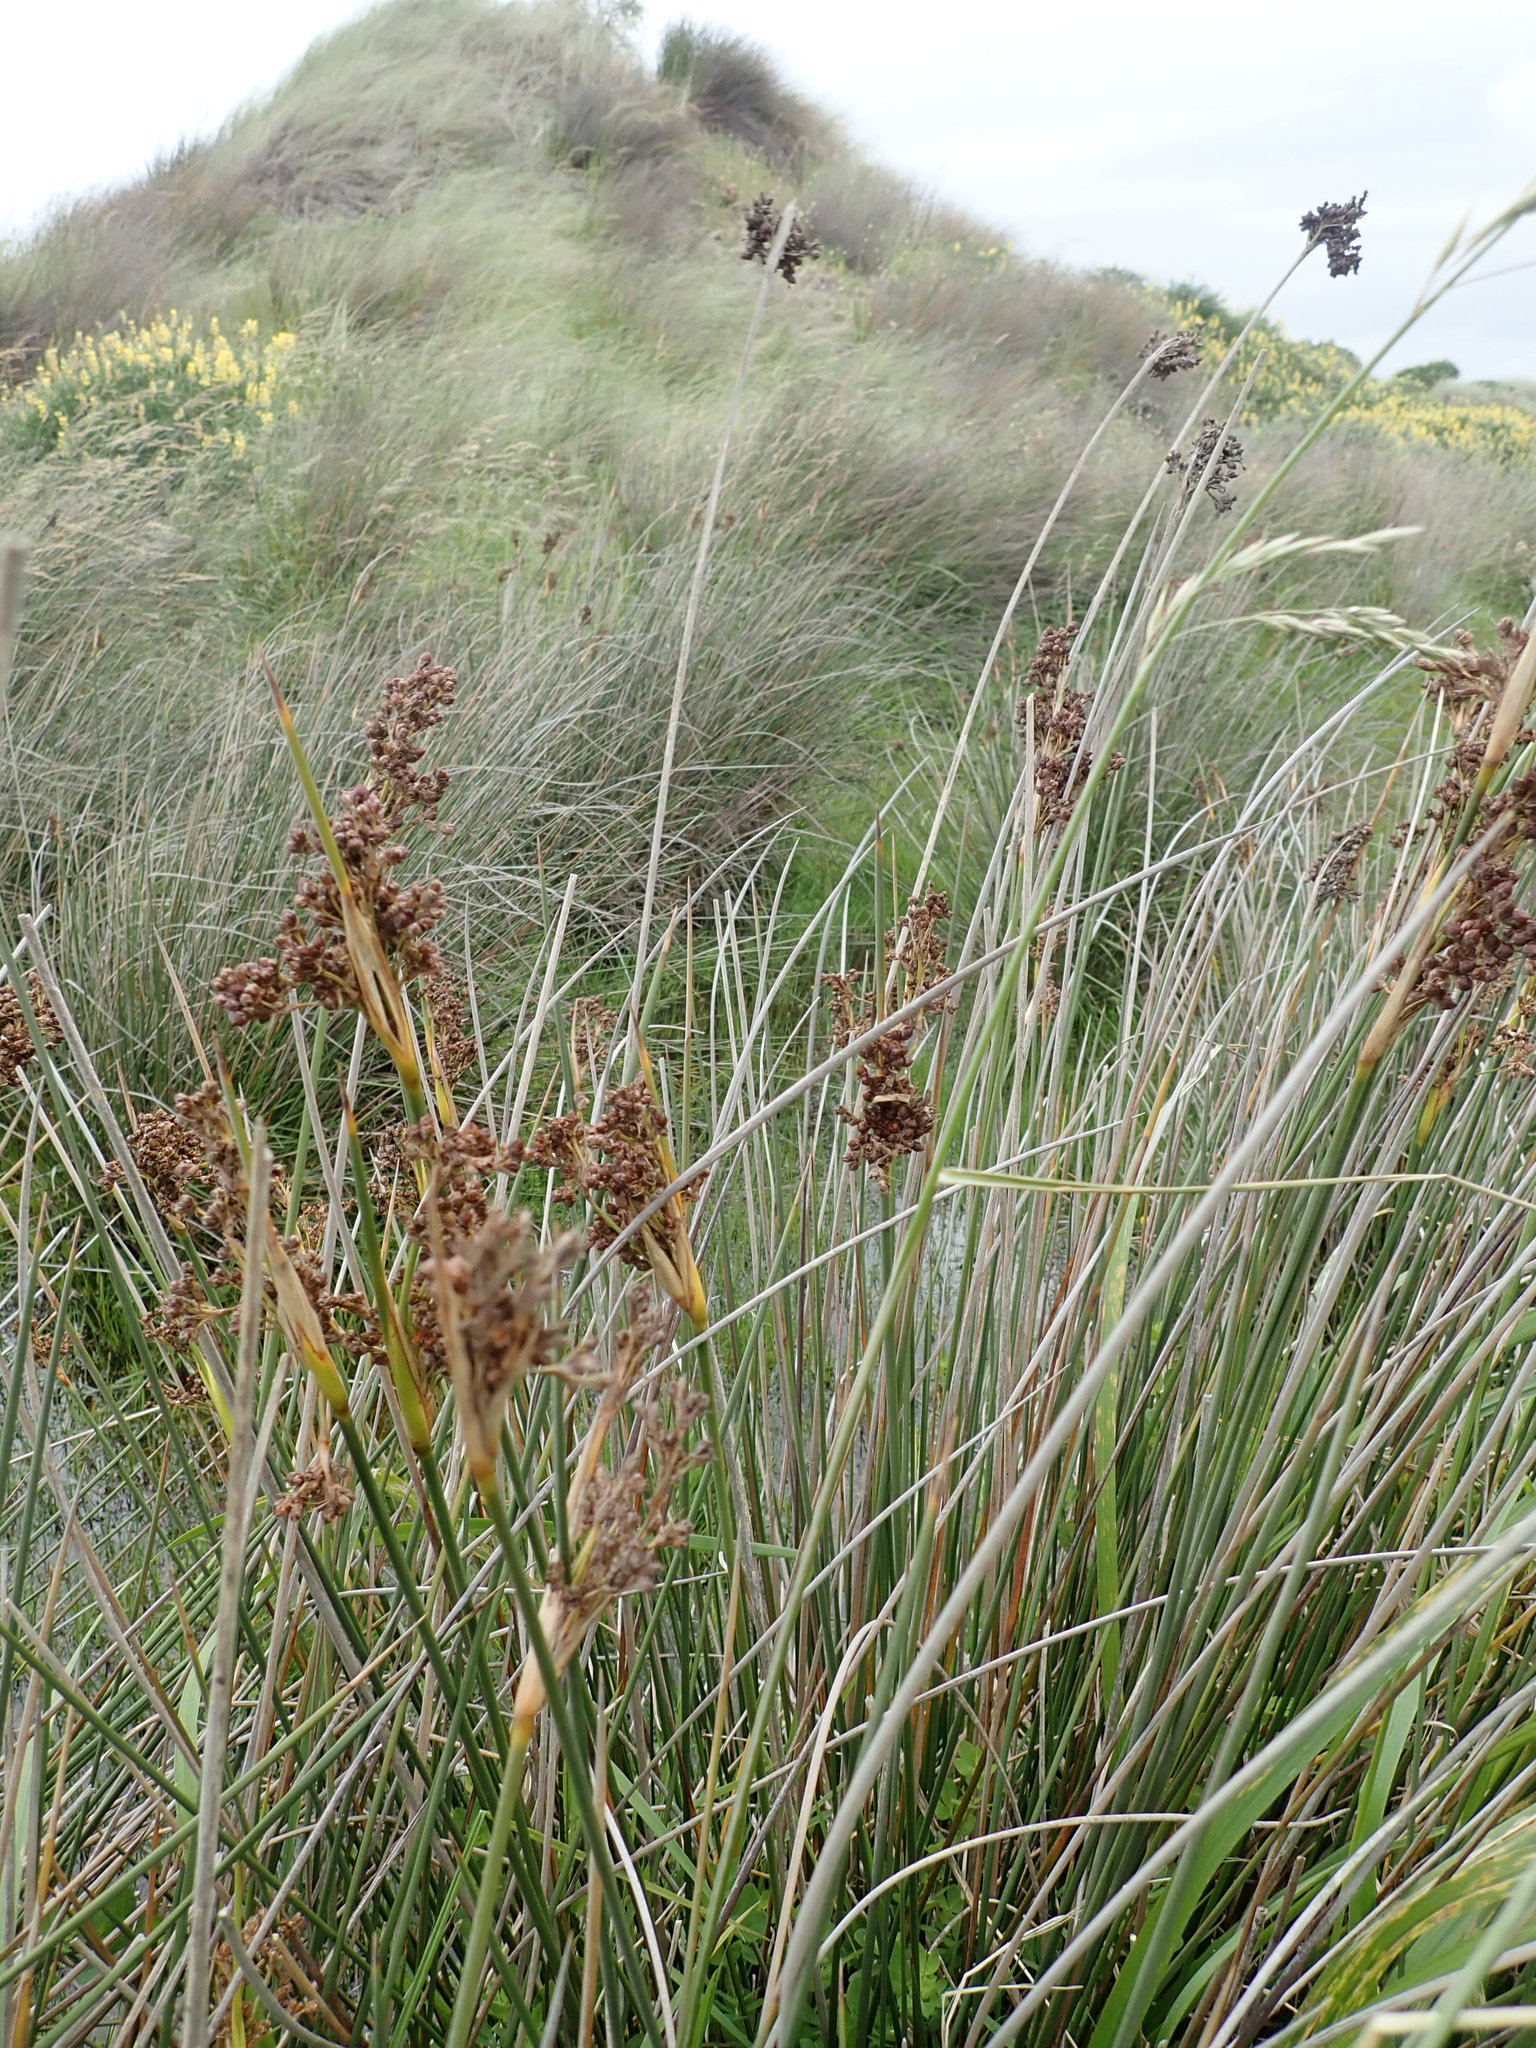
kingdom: Plantae
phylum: Tracheophyta
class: Liliopsida
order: Poales
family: Juncaceae
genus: Juncus
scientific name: Juncus acutus
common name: Sharp rush
